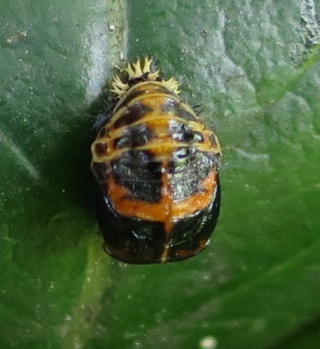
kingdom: Animalia
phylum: Arthropoda
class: Insecta
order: Coleoptera
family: Coccinellidae
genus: Harmonia
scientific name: Harmonia axyridis
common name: Harlequin ladybird
